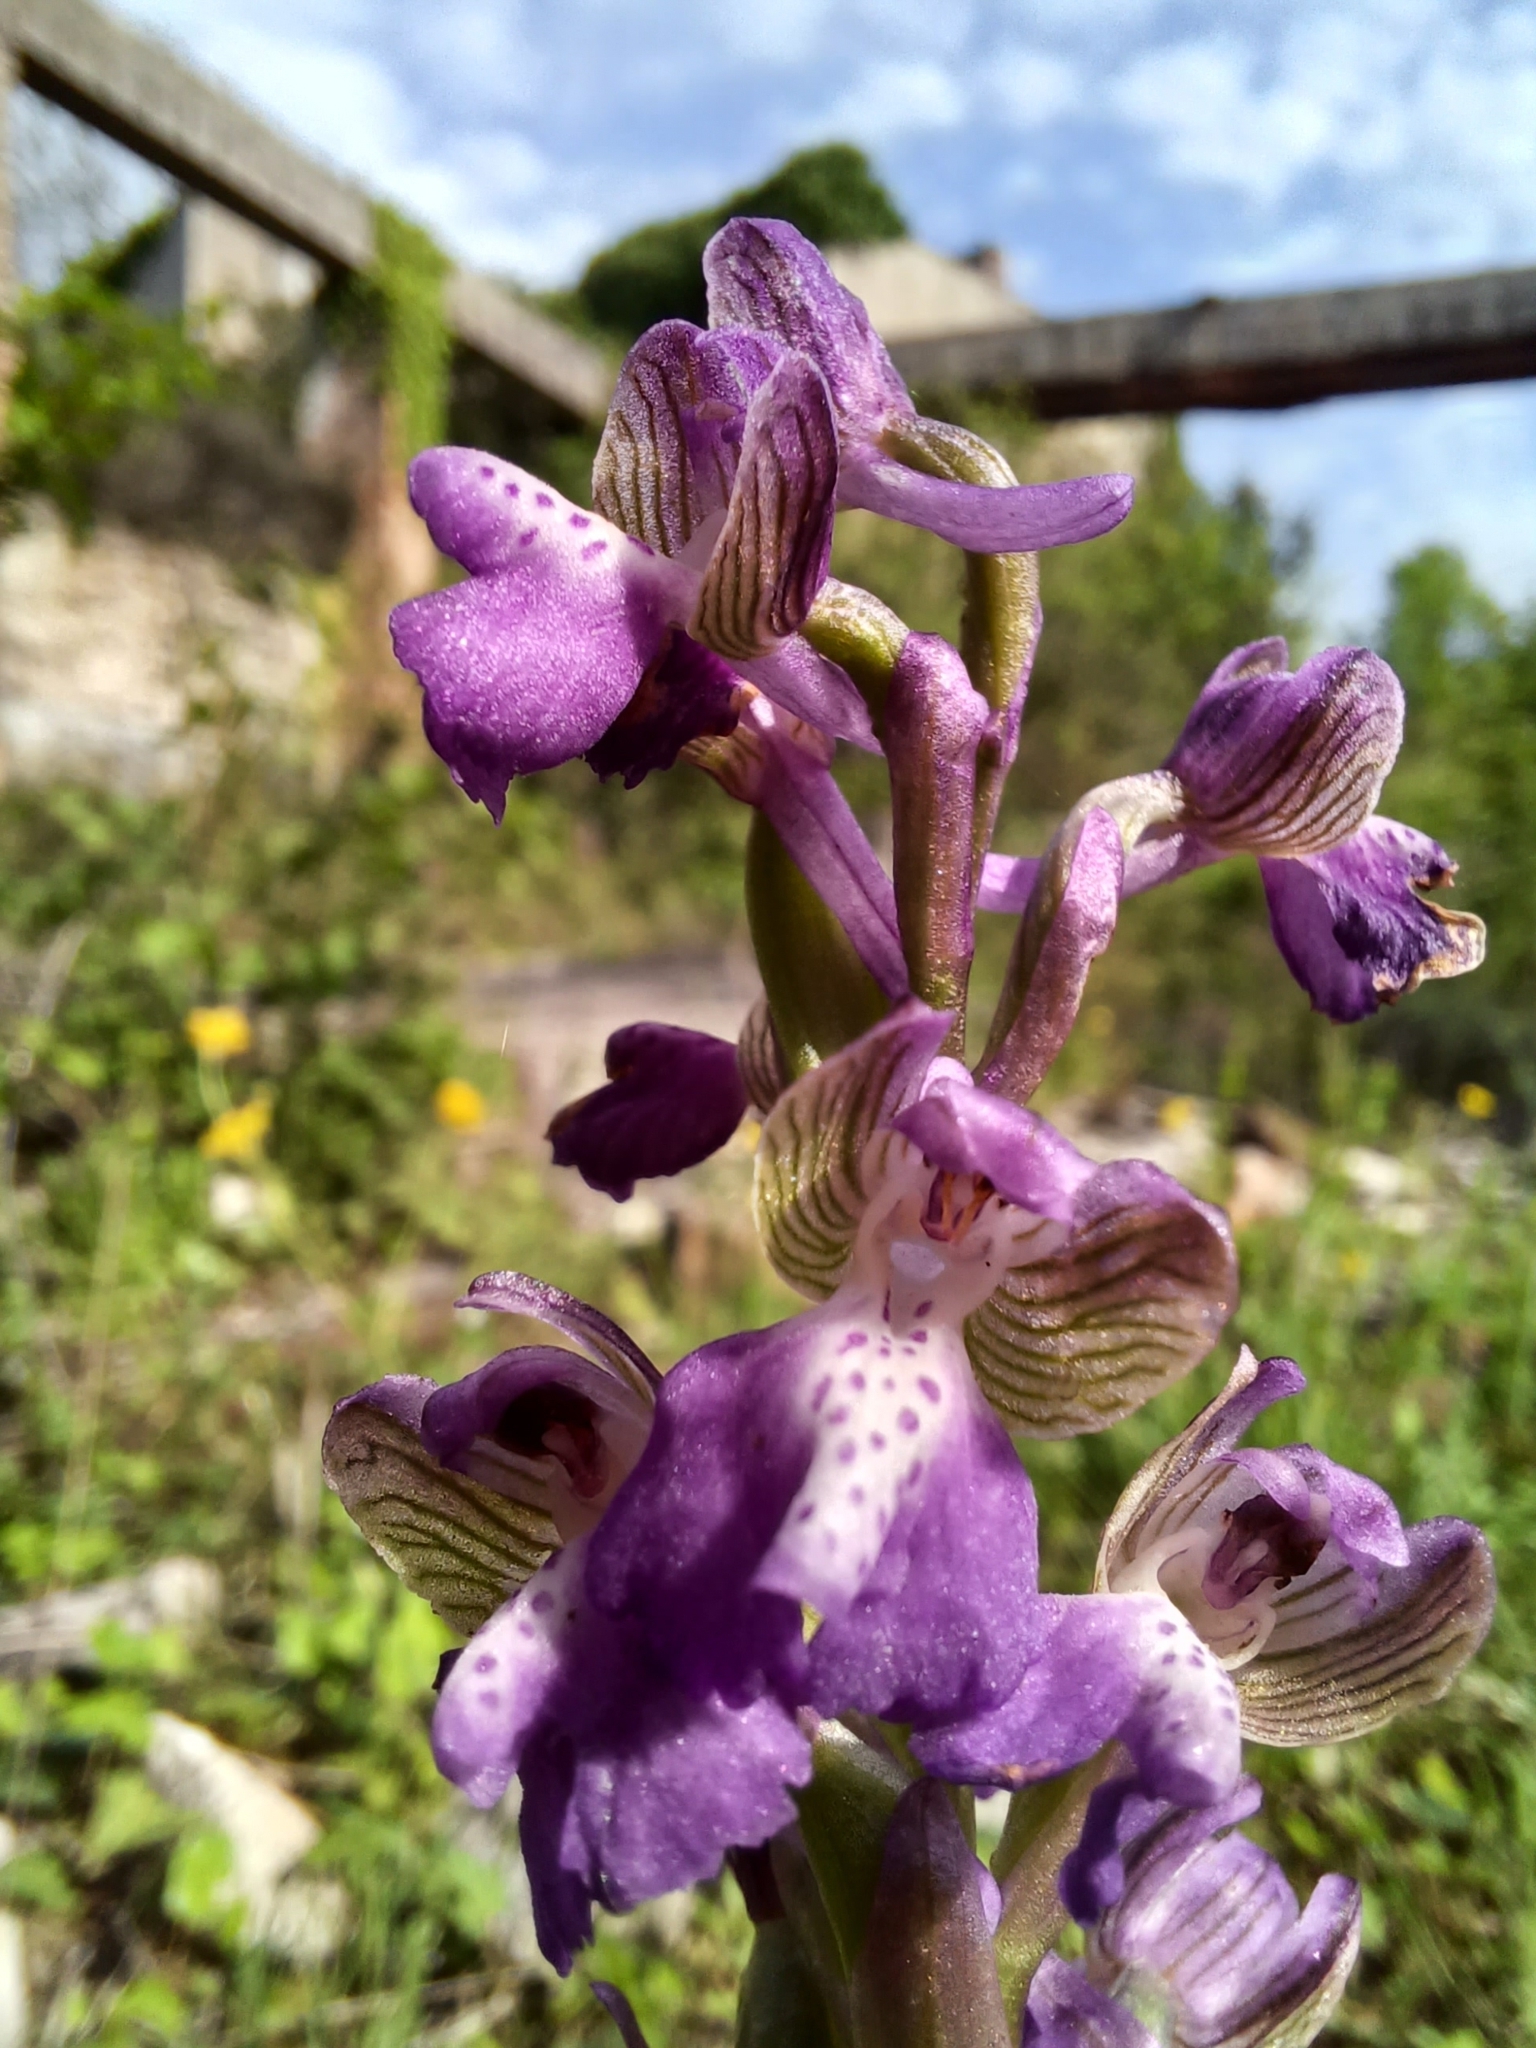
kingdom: Plantae
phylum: Tracheophyta
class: Liliopsida
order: Asparagales
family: Orchidaceae
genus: Anacamptis
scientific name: Anacamptis morio
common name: Green-winged orchid
